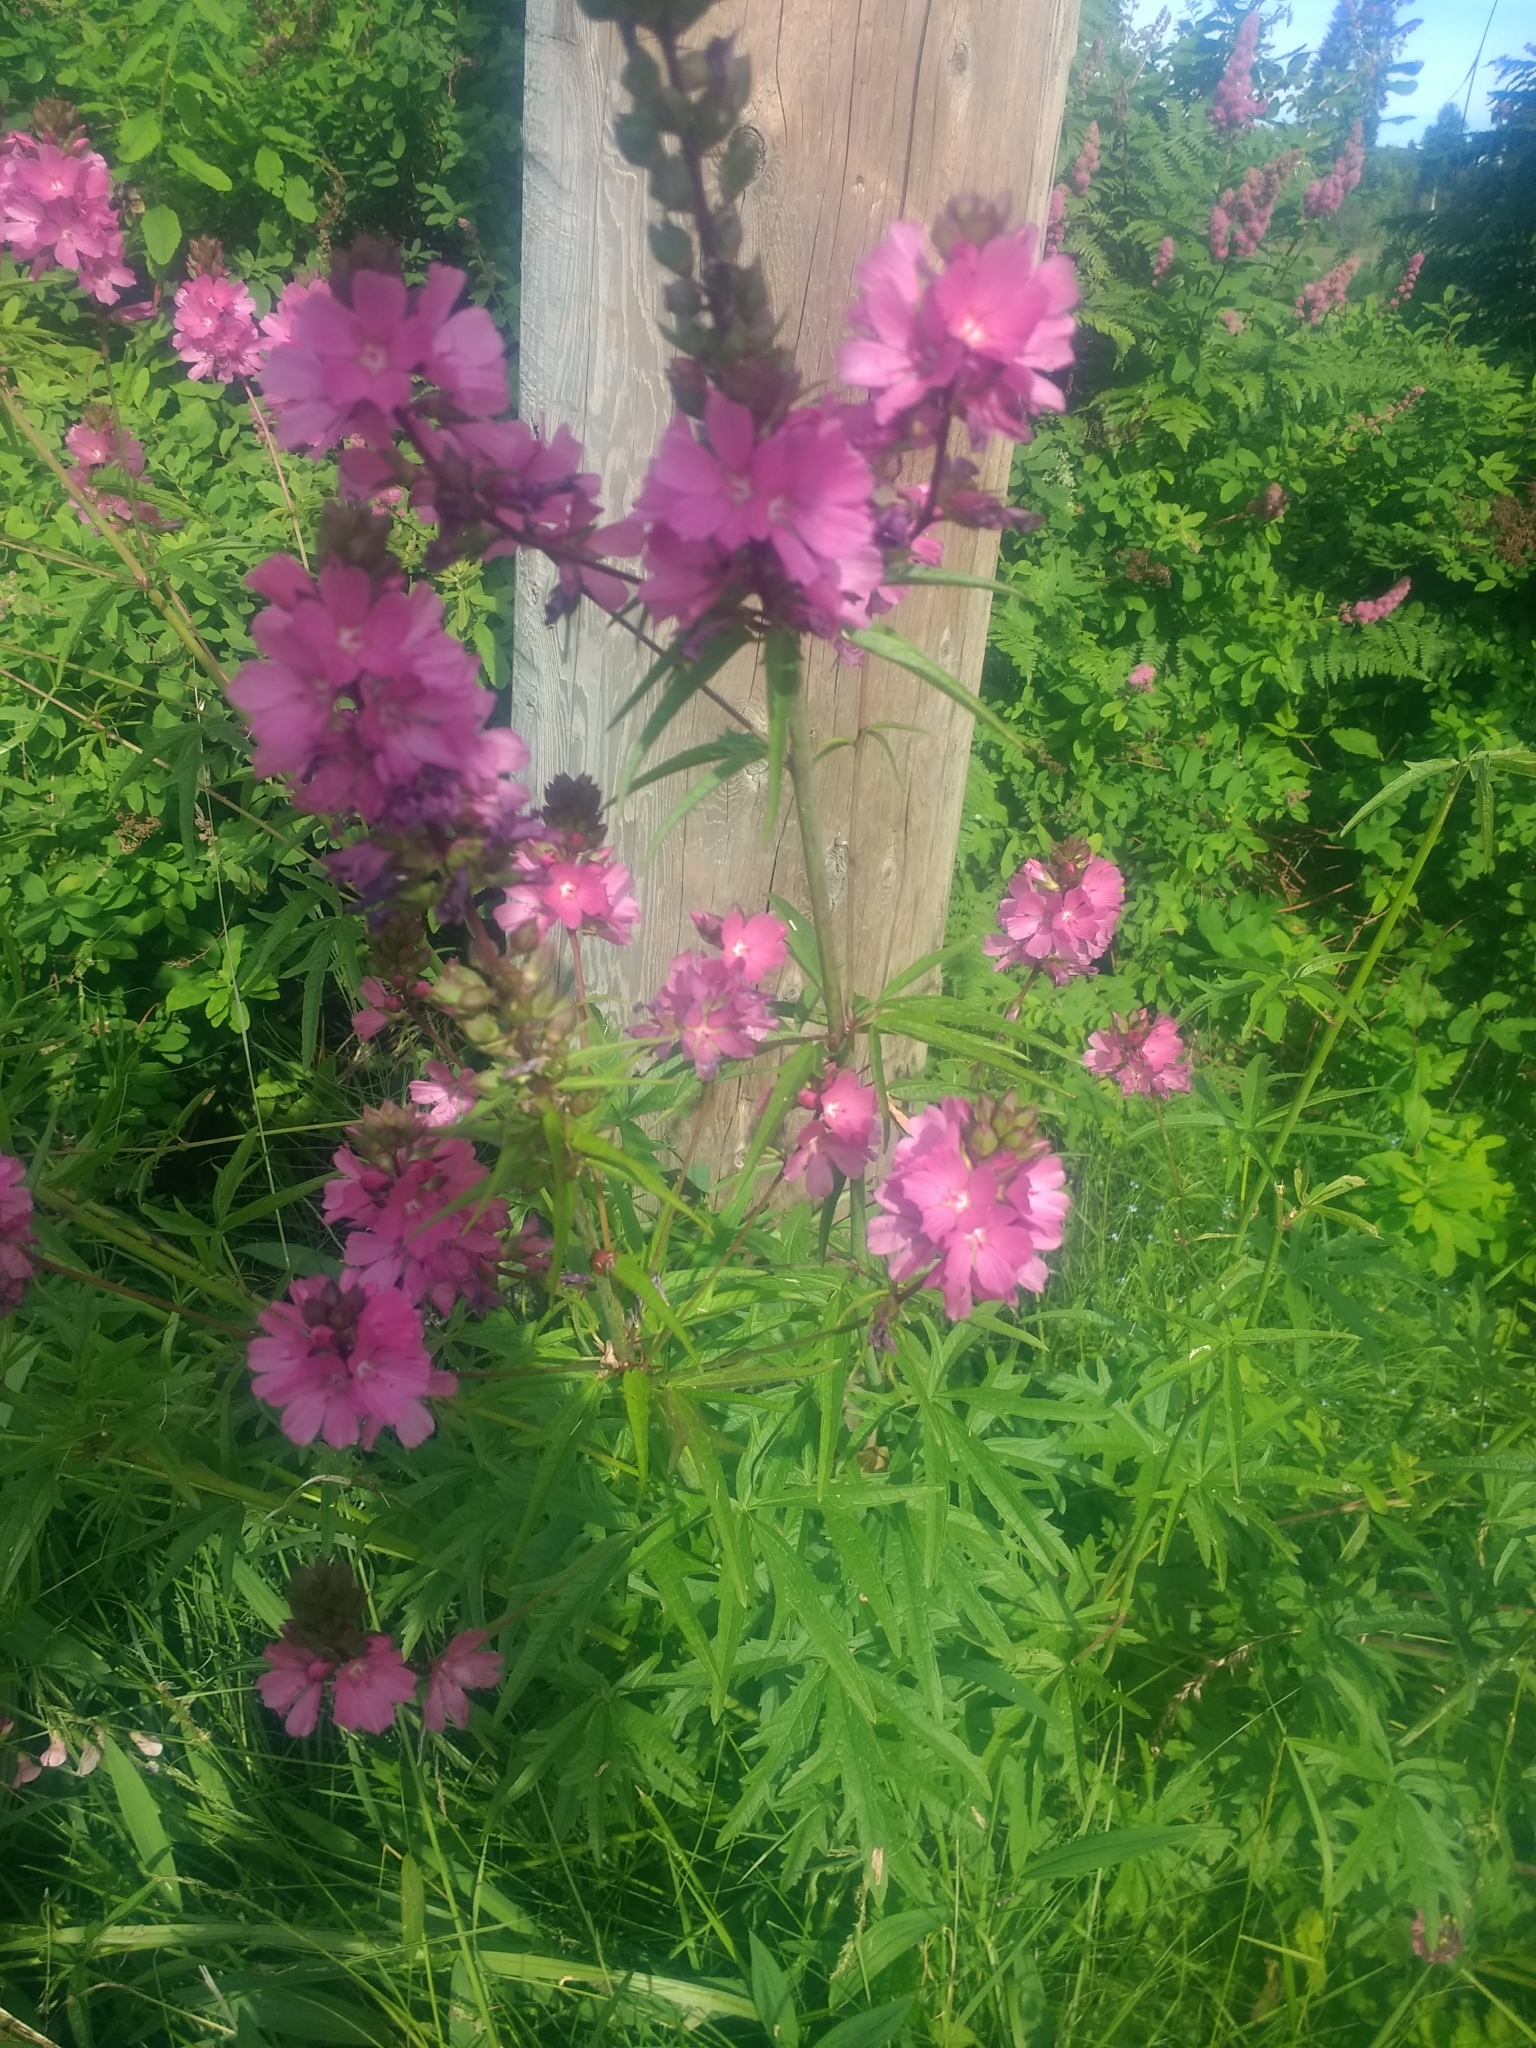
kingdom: Plantae
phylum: Tracheophyta
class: Magnoliopsida
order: Malvales
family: Malvaceae
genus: Sidalcea
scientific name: Sidalcea hendersonii
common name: Mallow
